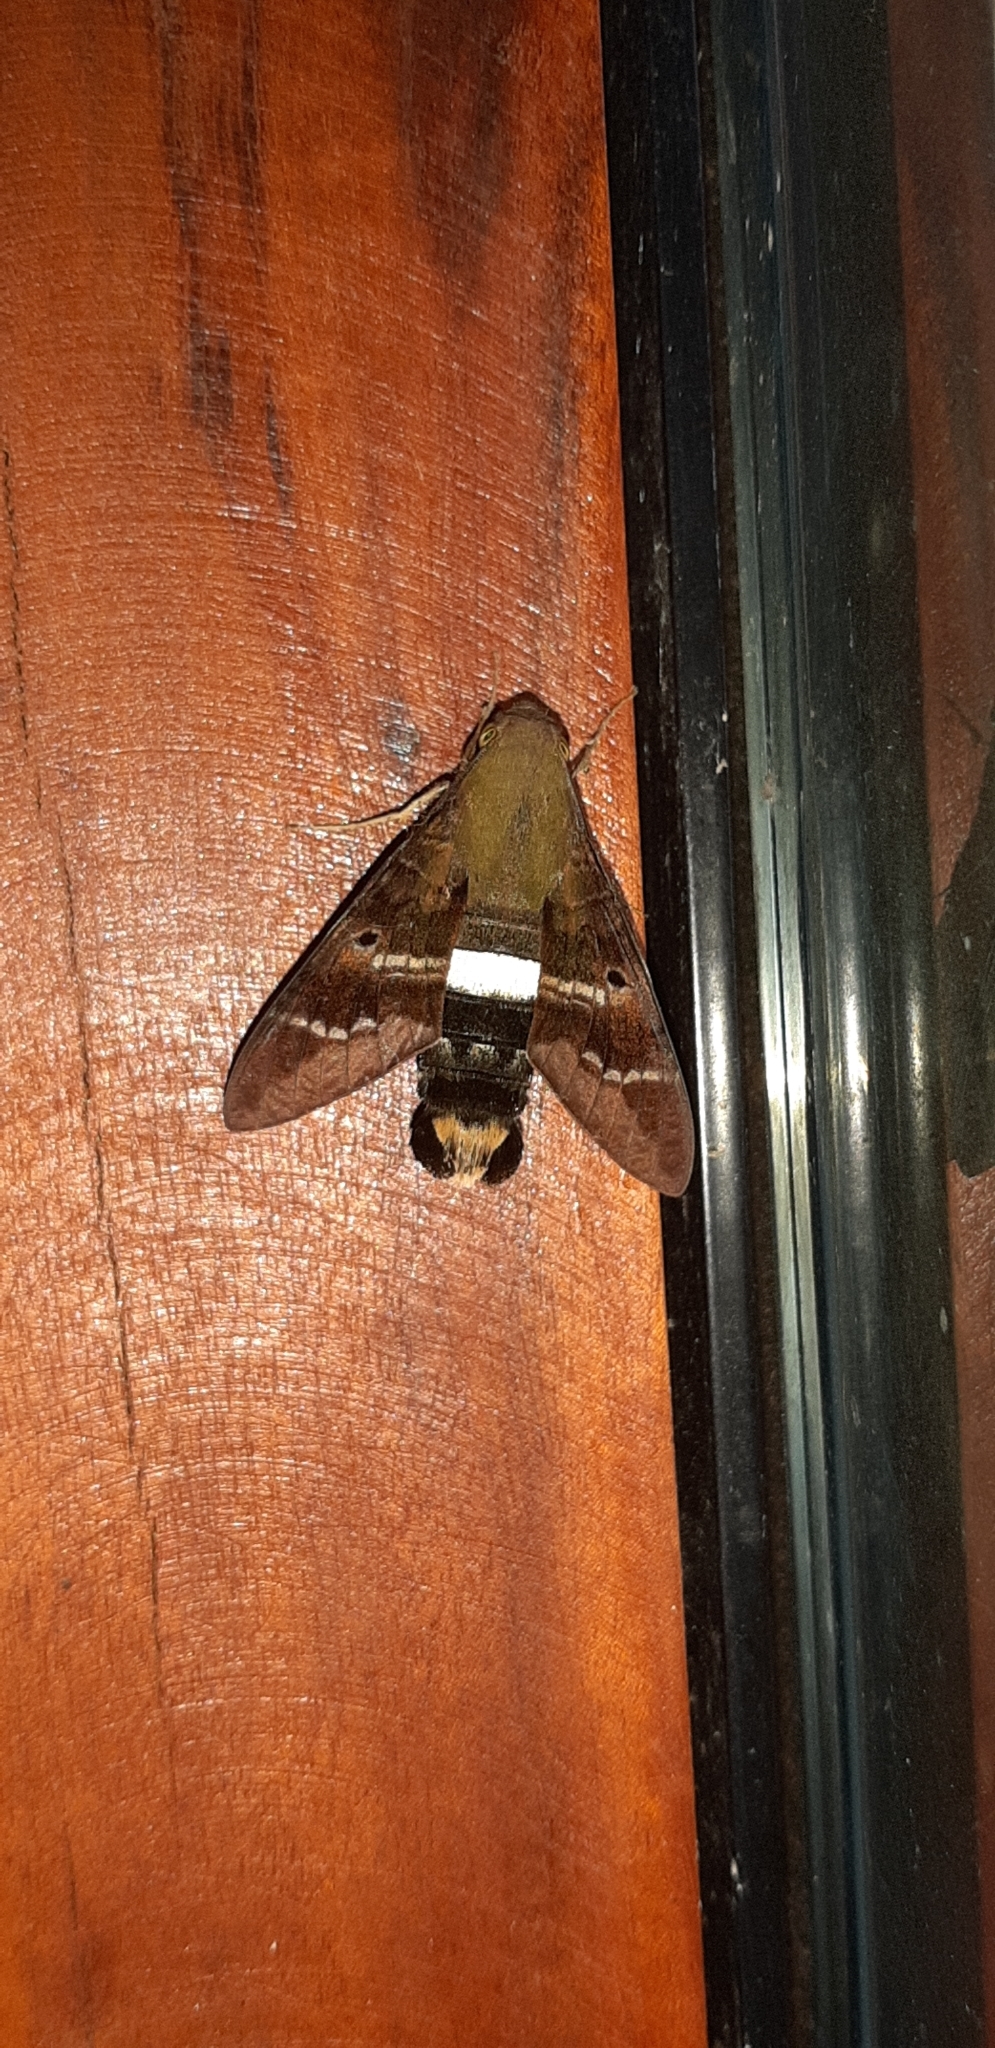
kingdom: Animalia
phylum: Arthropoda
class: Insecta
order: Lepidoptera
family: Sphingidae
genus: Aellopos
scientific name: Aellopos titan
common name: Titan sphinx
